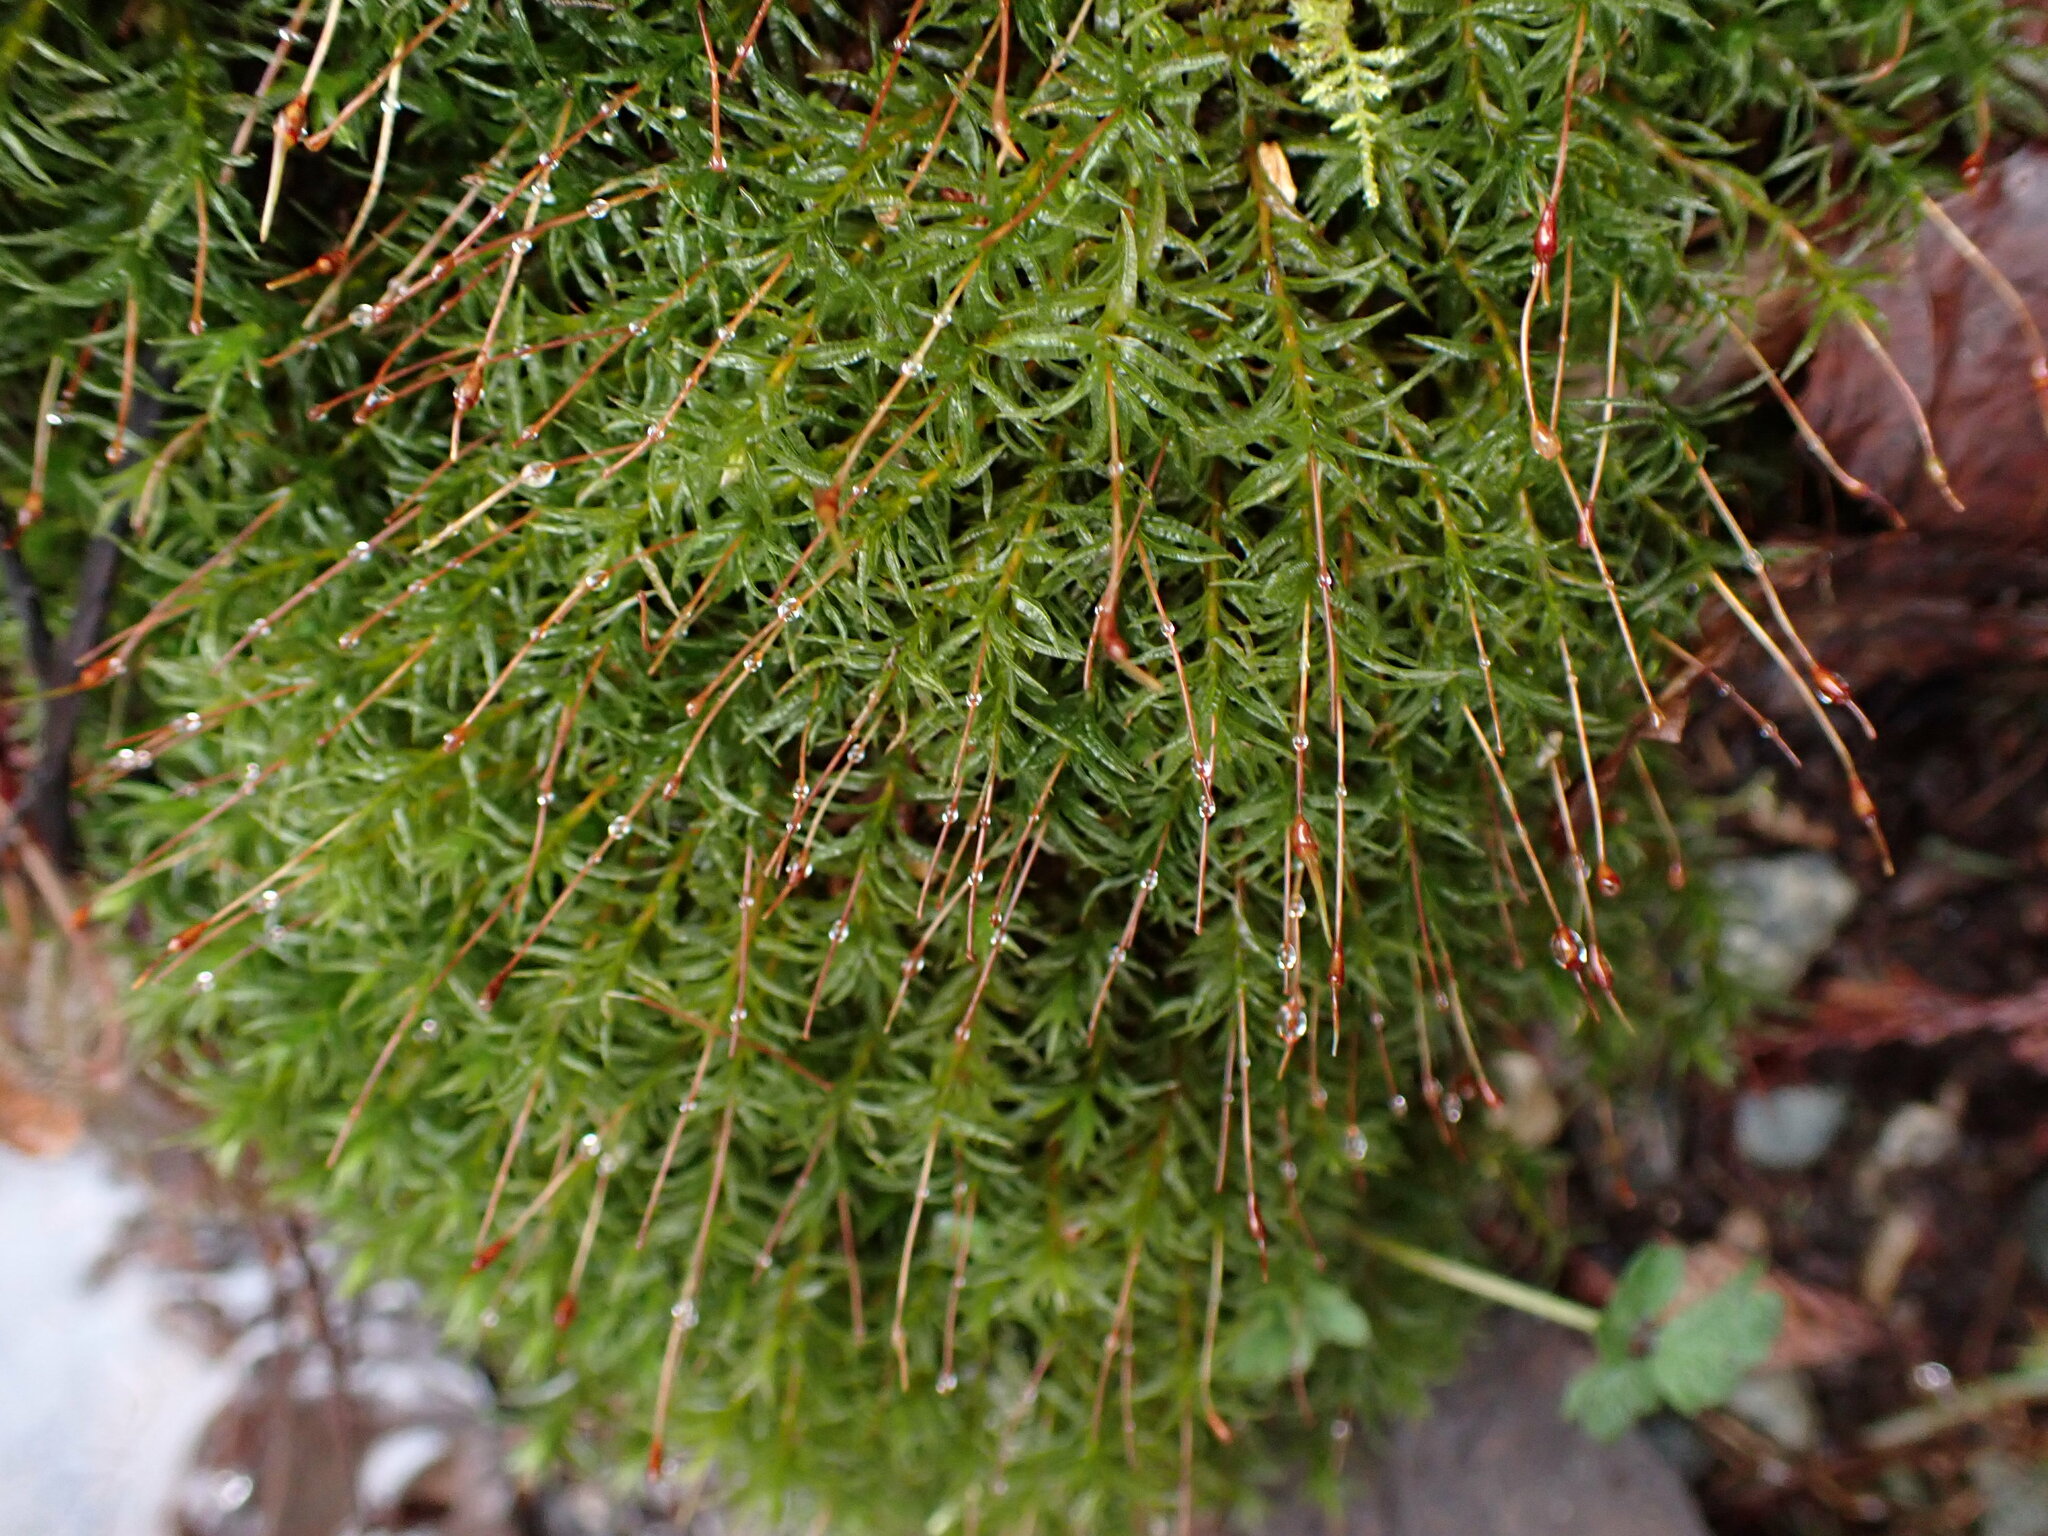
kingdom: Plantae
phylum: Bryophyta
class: Polytrichopsida
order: Polytrichales
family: Polytrichaceae
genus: Atrichum
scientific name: Atrichum undulatum
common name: Common smoothcap
